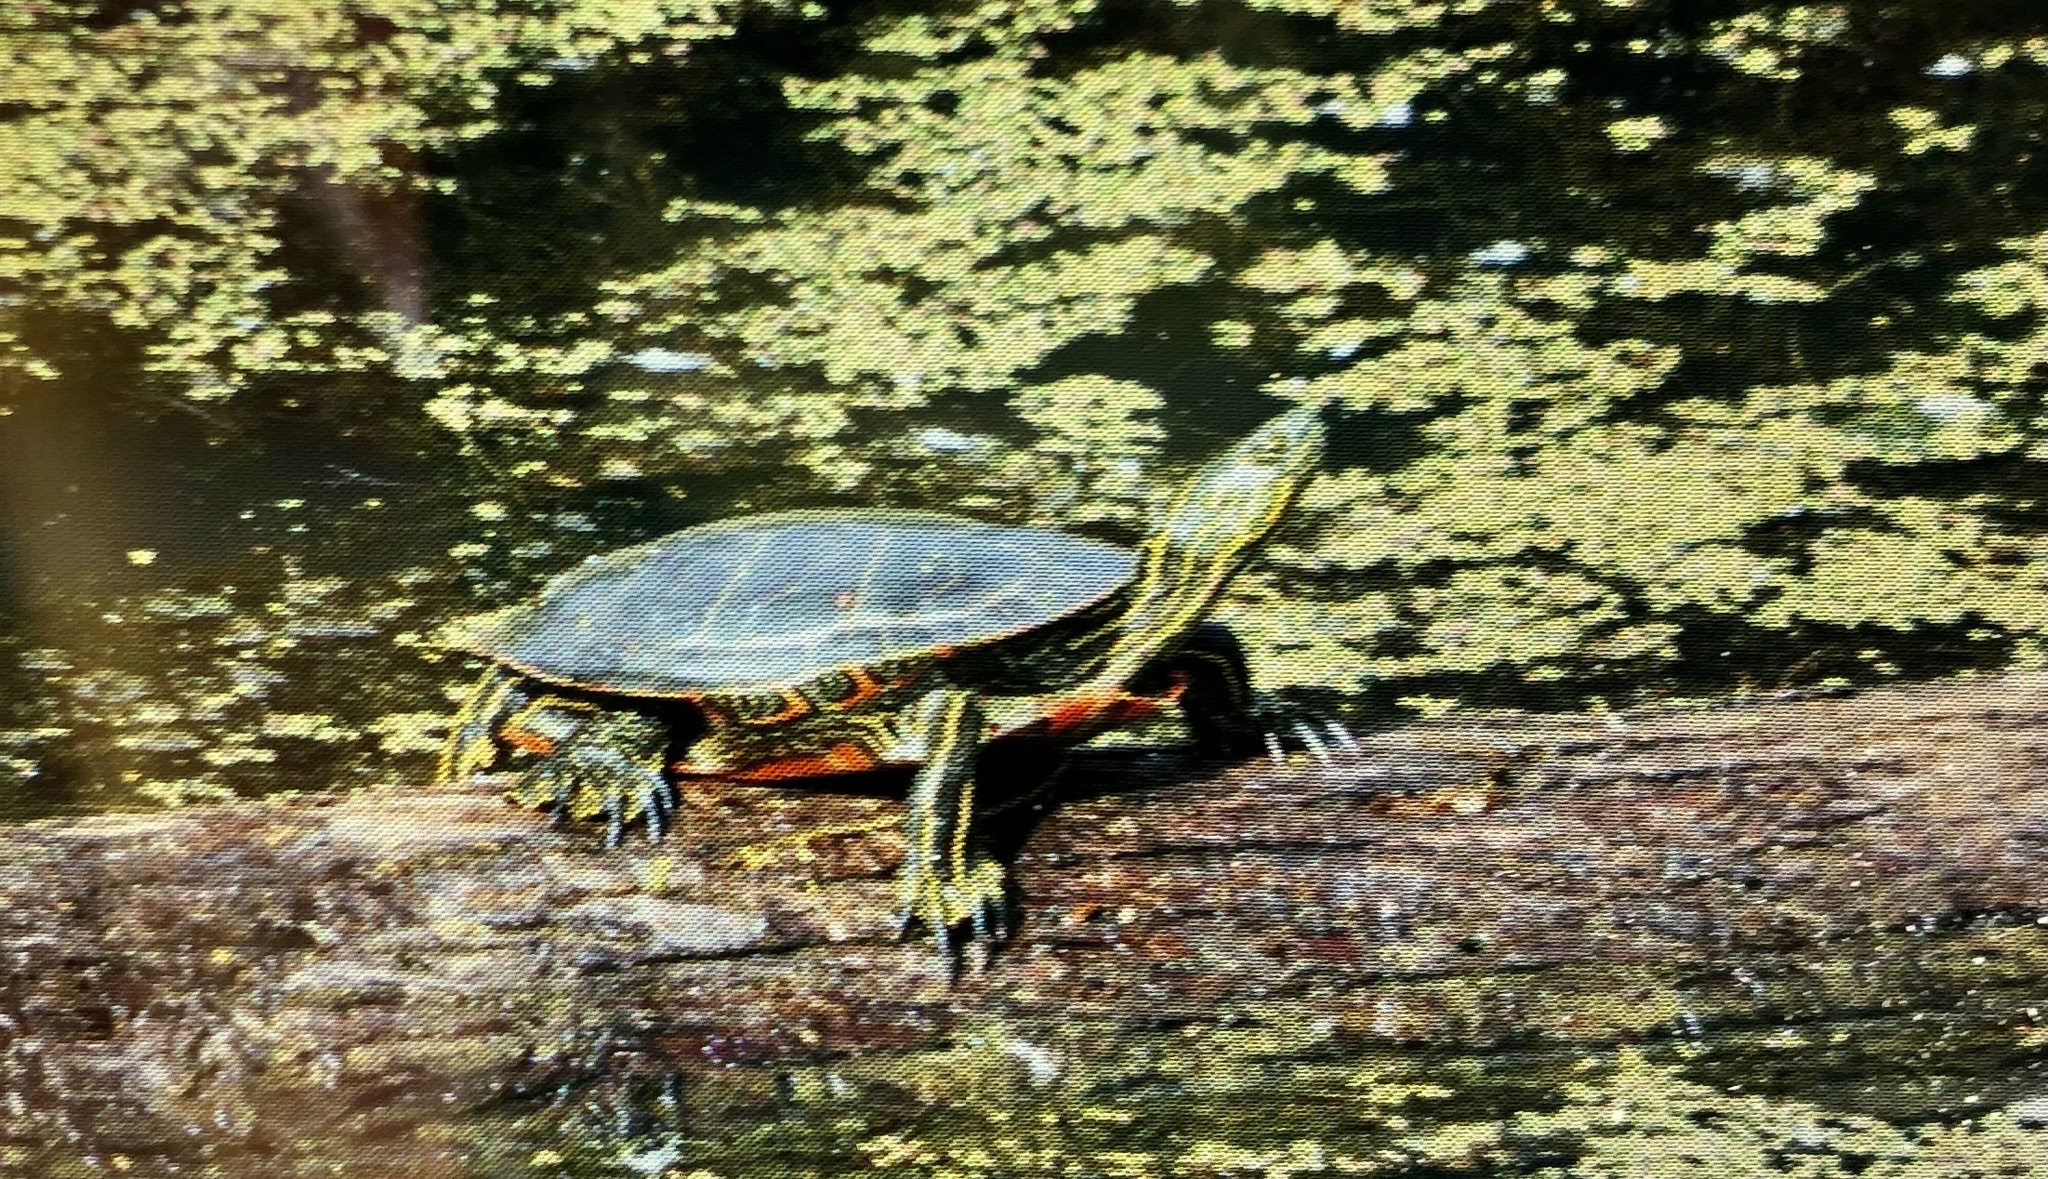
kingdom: Animalia
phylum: Chordata
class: Testudines
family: Emydidae
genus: Chrysemys
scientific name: Chrysemys picta
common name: Painted turtle
